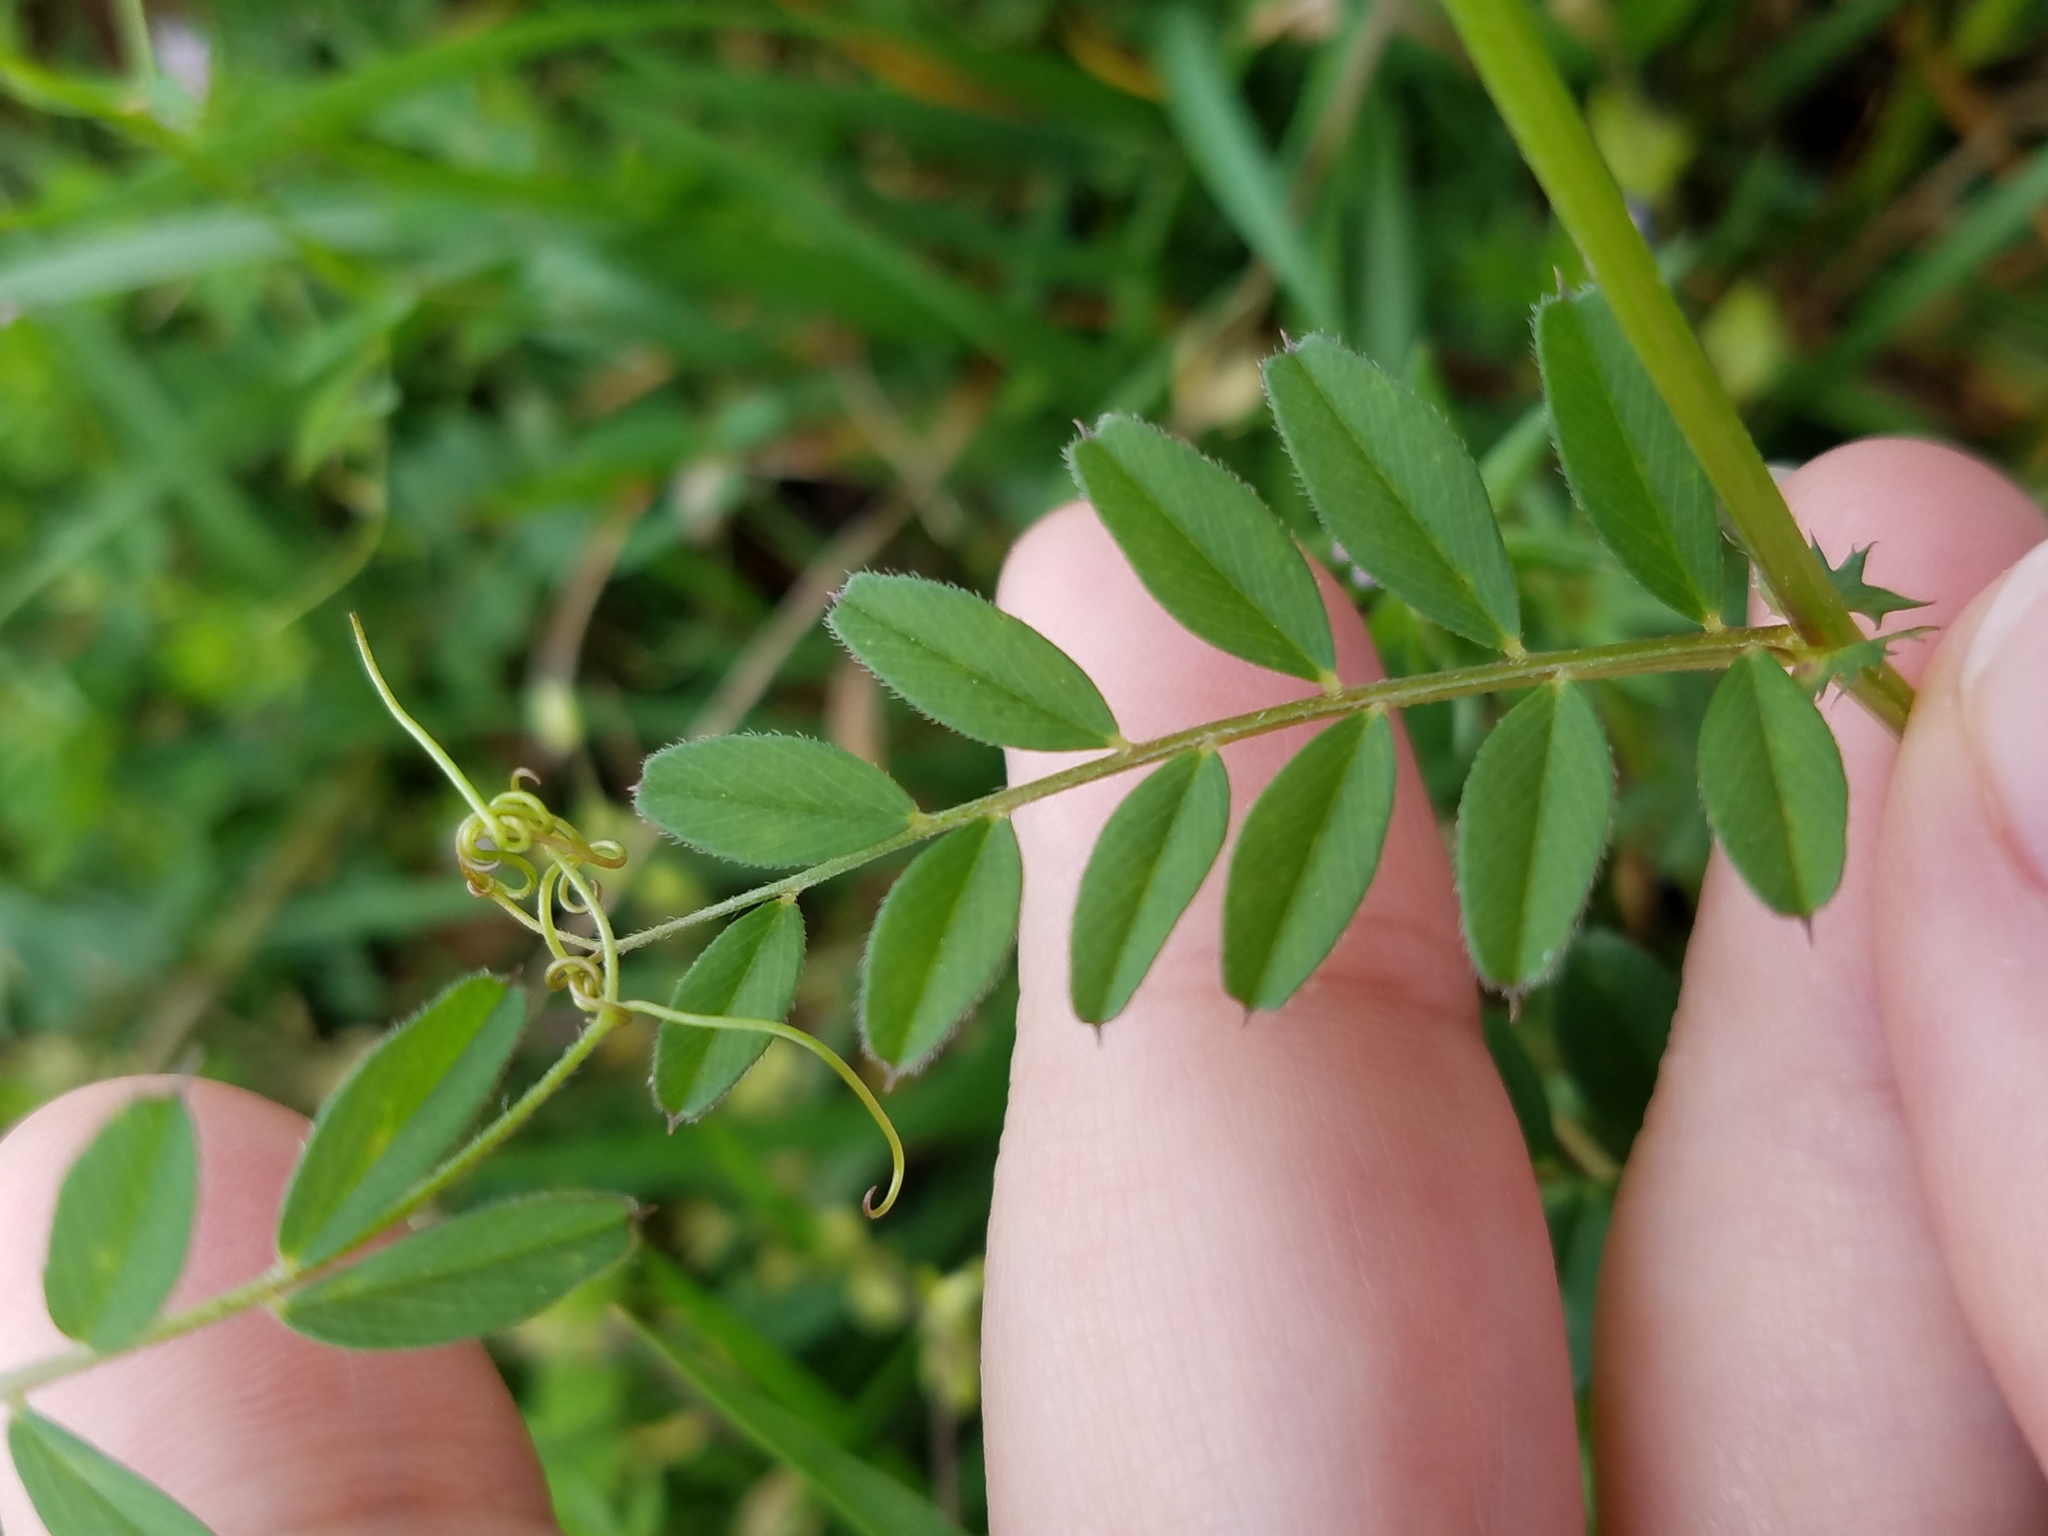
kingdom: Plantae
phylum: Tracheophyta
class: Magnoliopsida
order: Fabales
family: Fabaceae
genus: Vicia
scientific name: Vicia sativa
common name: Garden vetch
